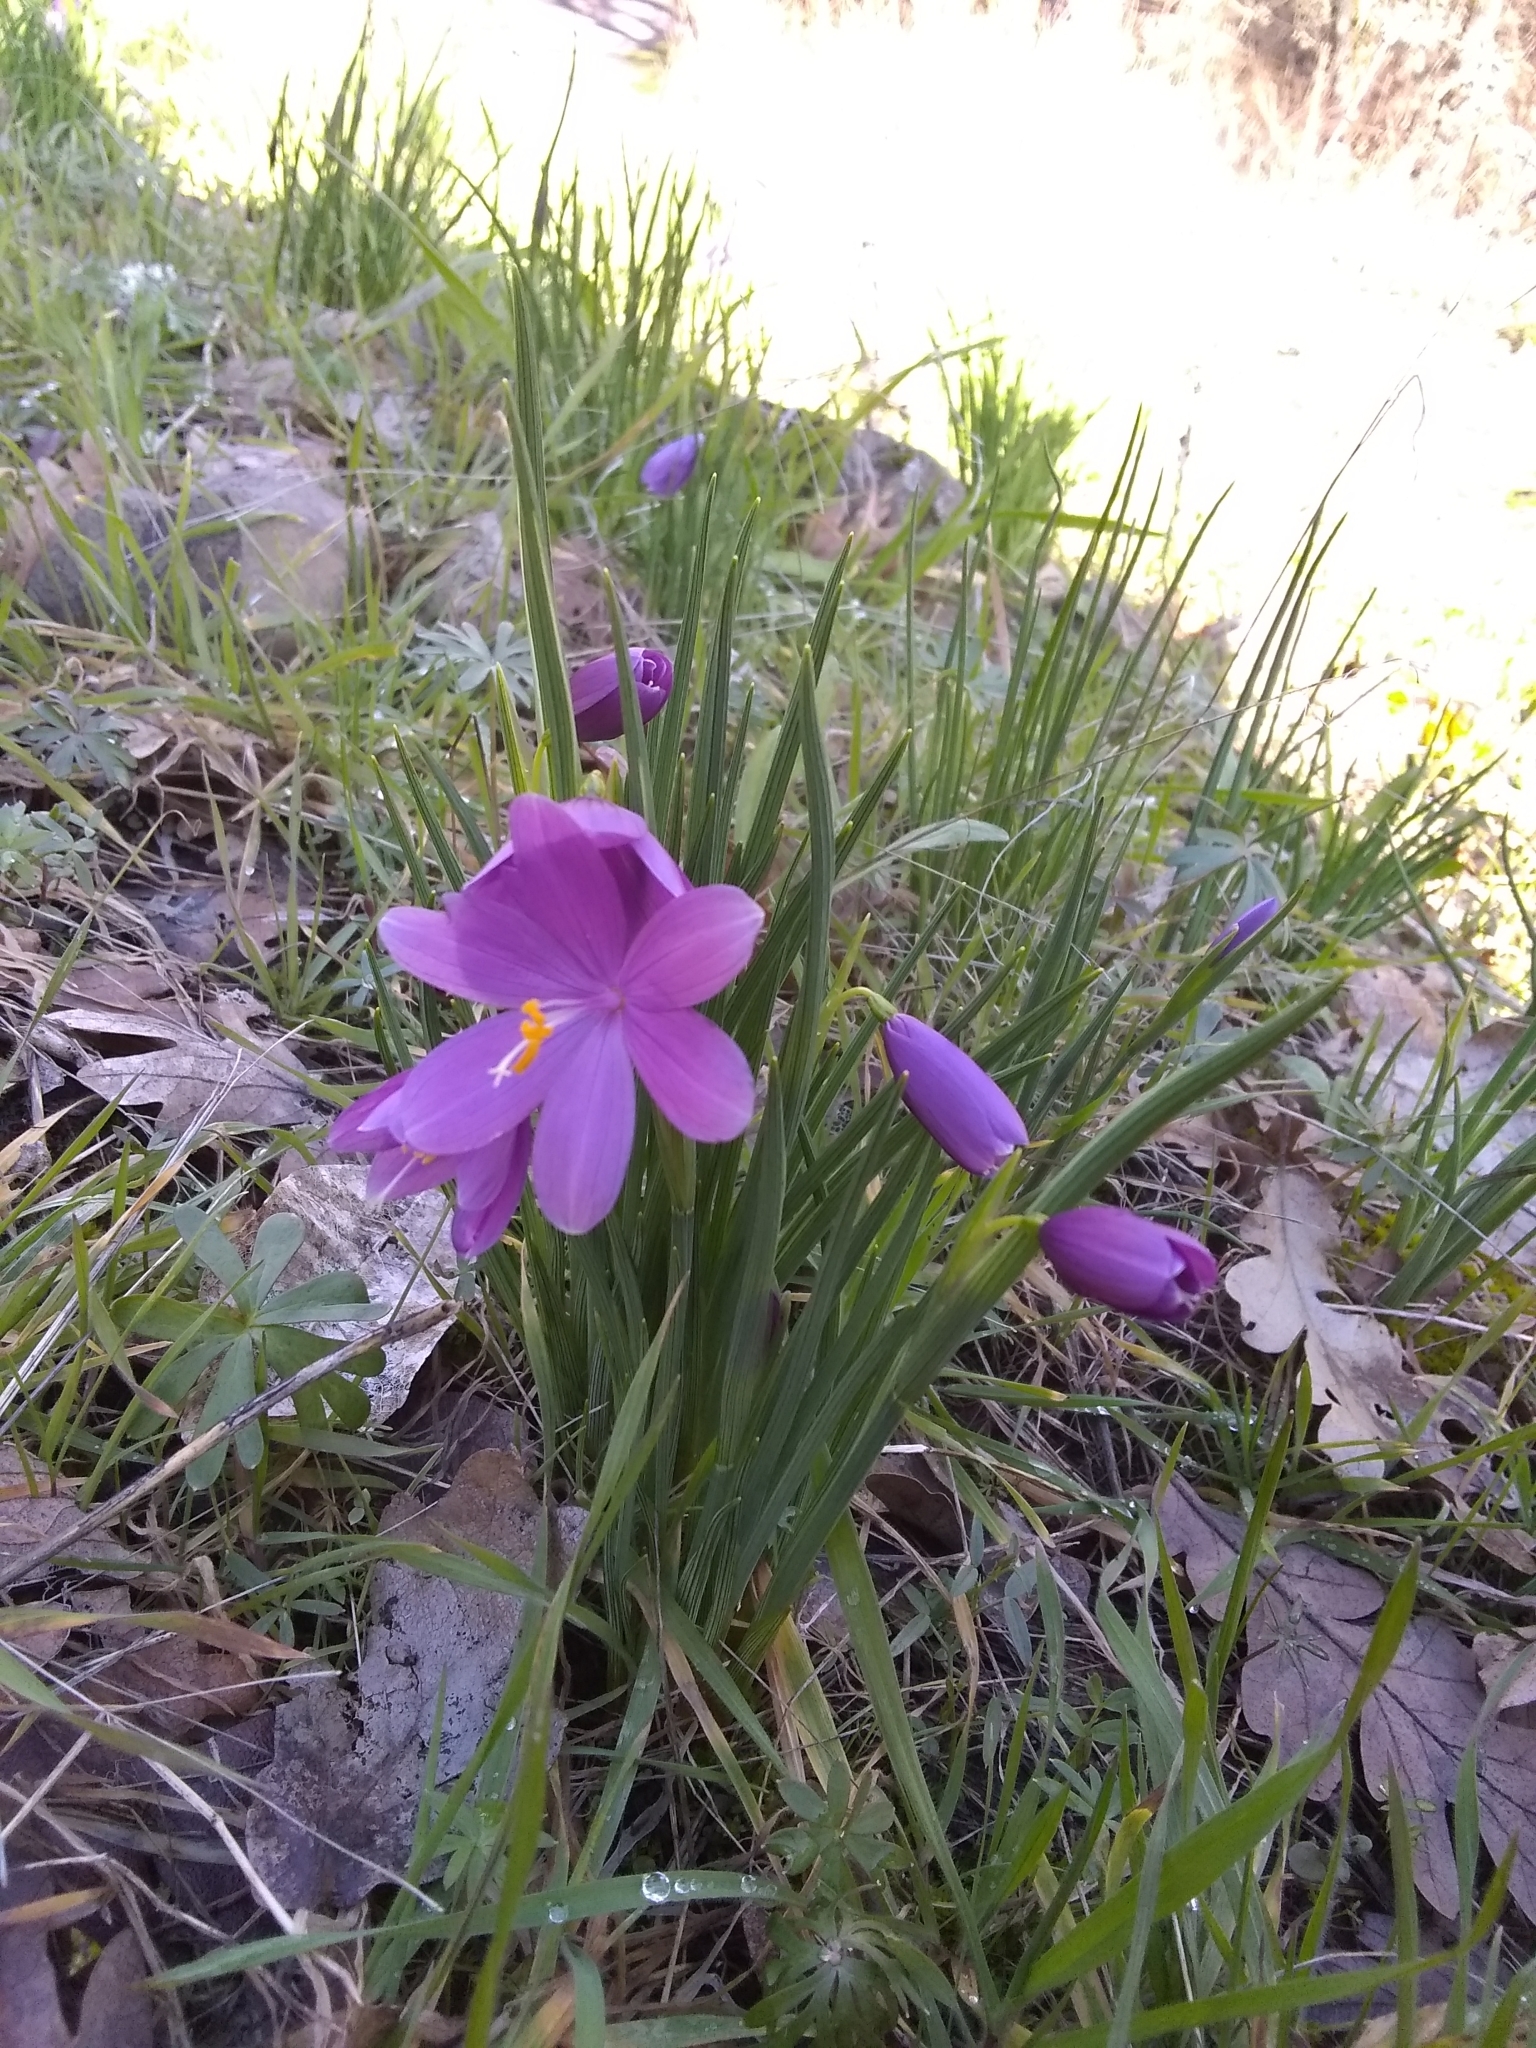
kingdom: Plantae
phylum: Tracheophyta
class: Liliopsida
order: Asparagales
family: Iridaceae
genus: Olsynium
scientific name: Olsynium douglasii
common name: Douglas' grasswidow
